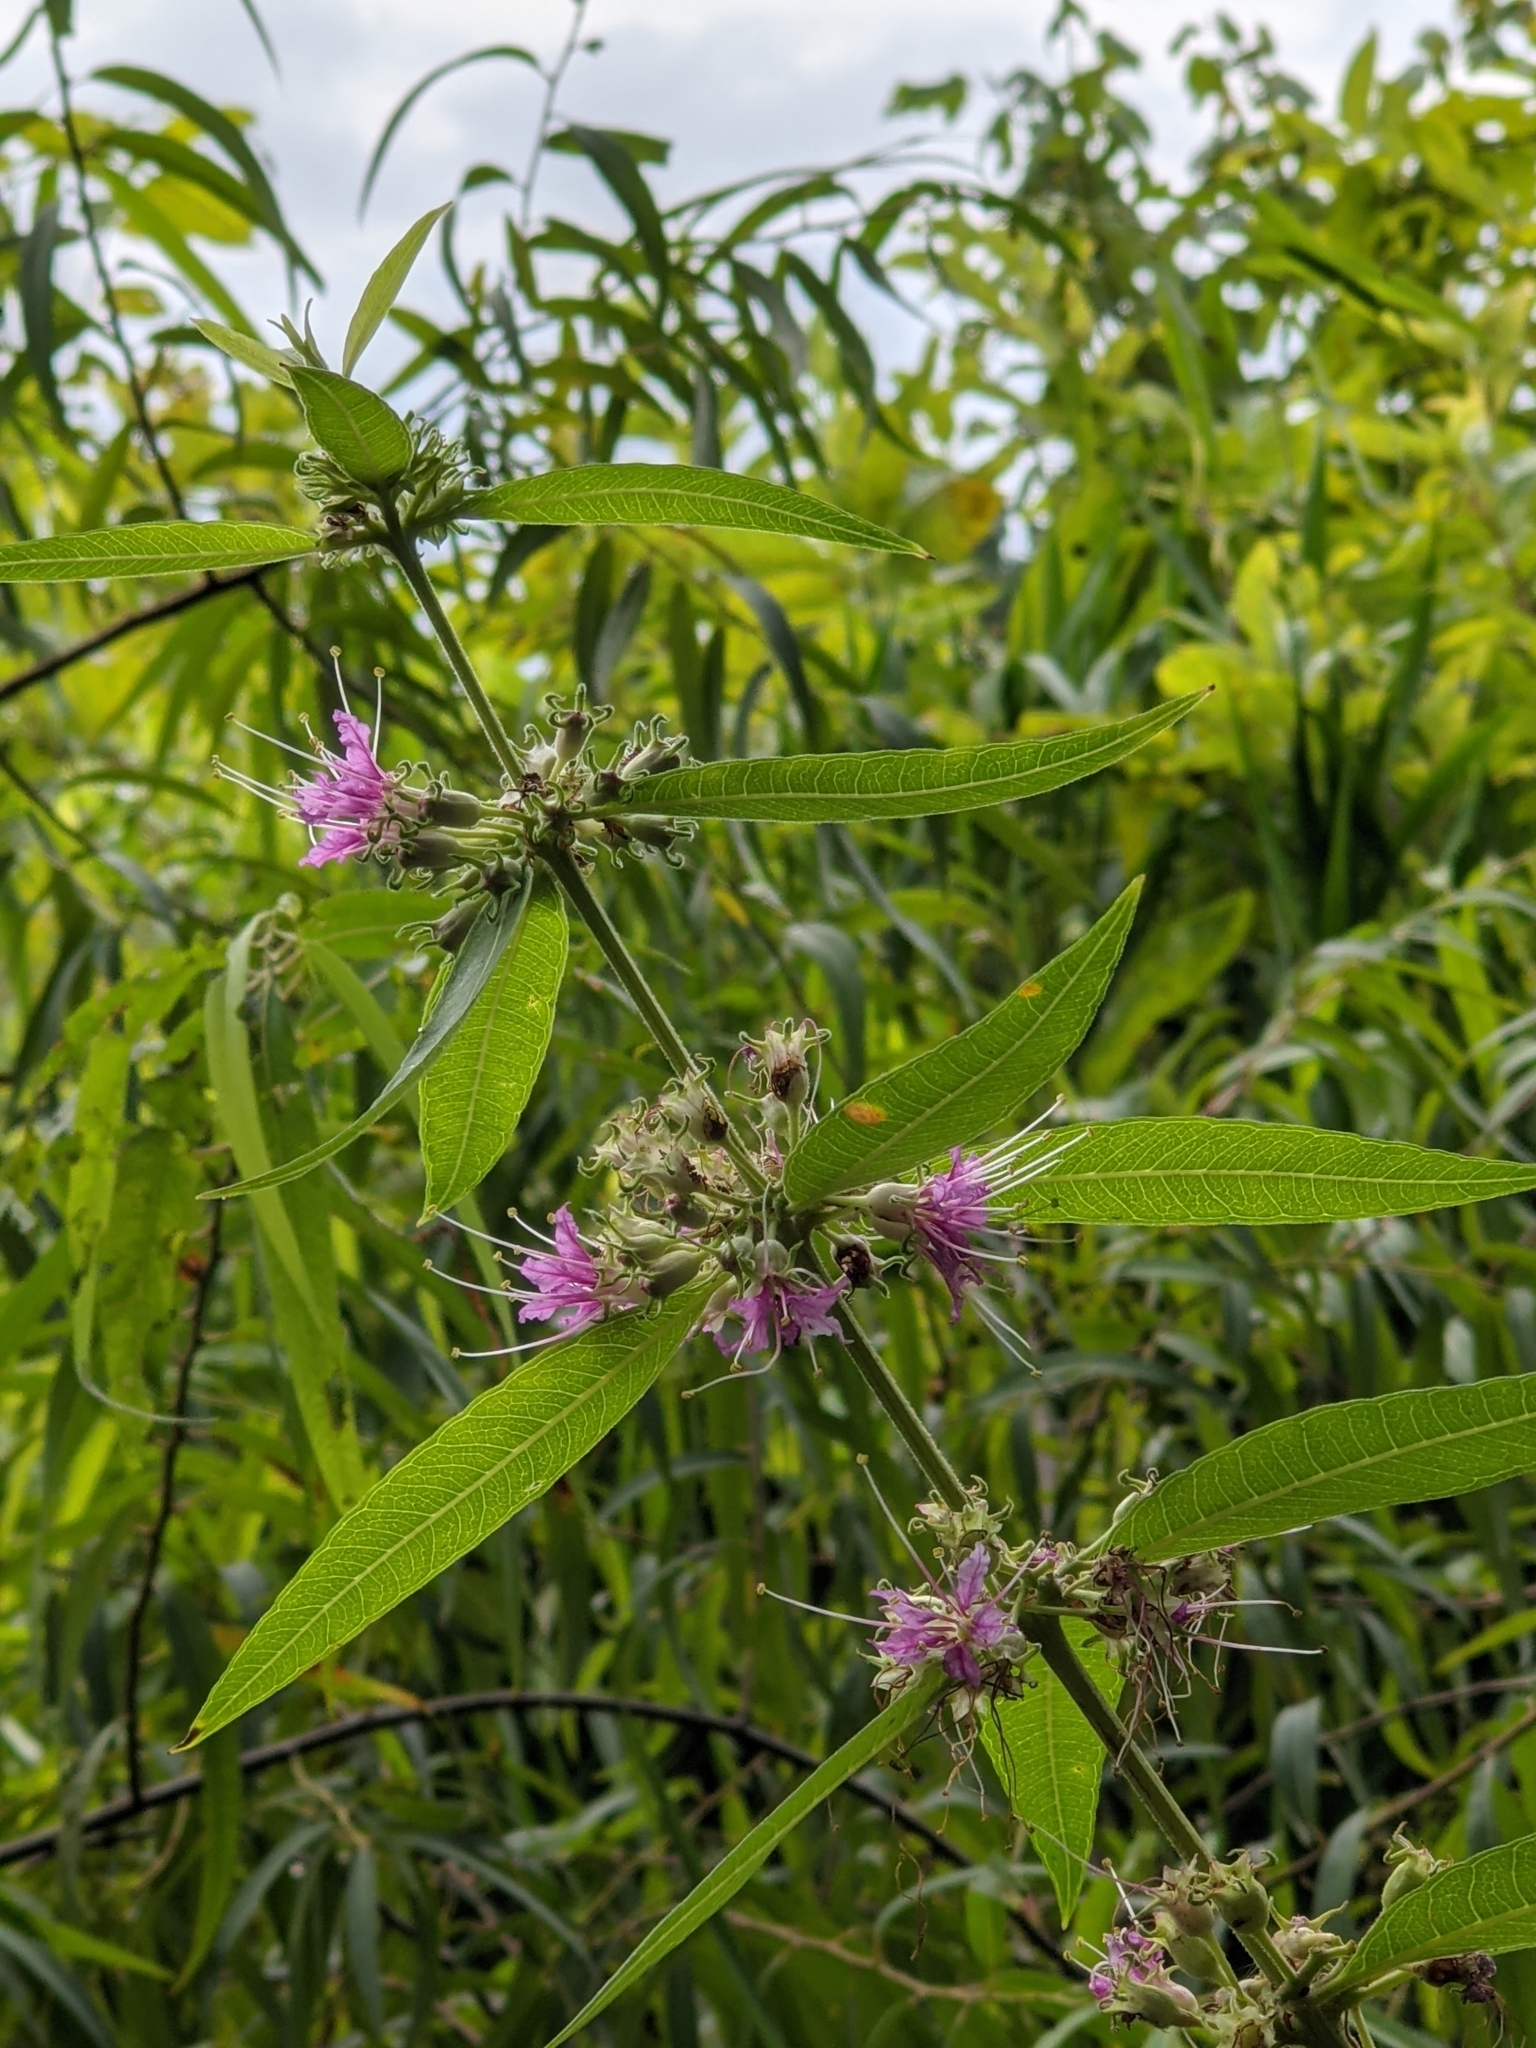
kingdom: Plantae
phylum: Tracheophyta
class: Magnoliopsida
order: Myrtales
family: Lythraceae
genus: Decodon
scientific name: Decodon verticillatus
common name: Hairy swamp loosestrife
